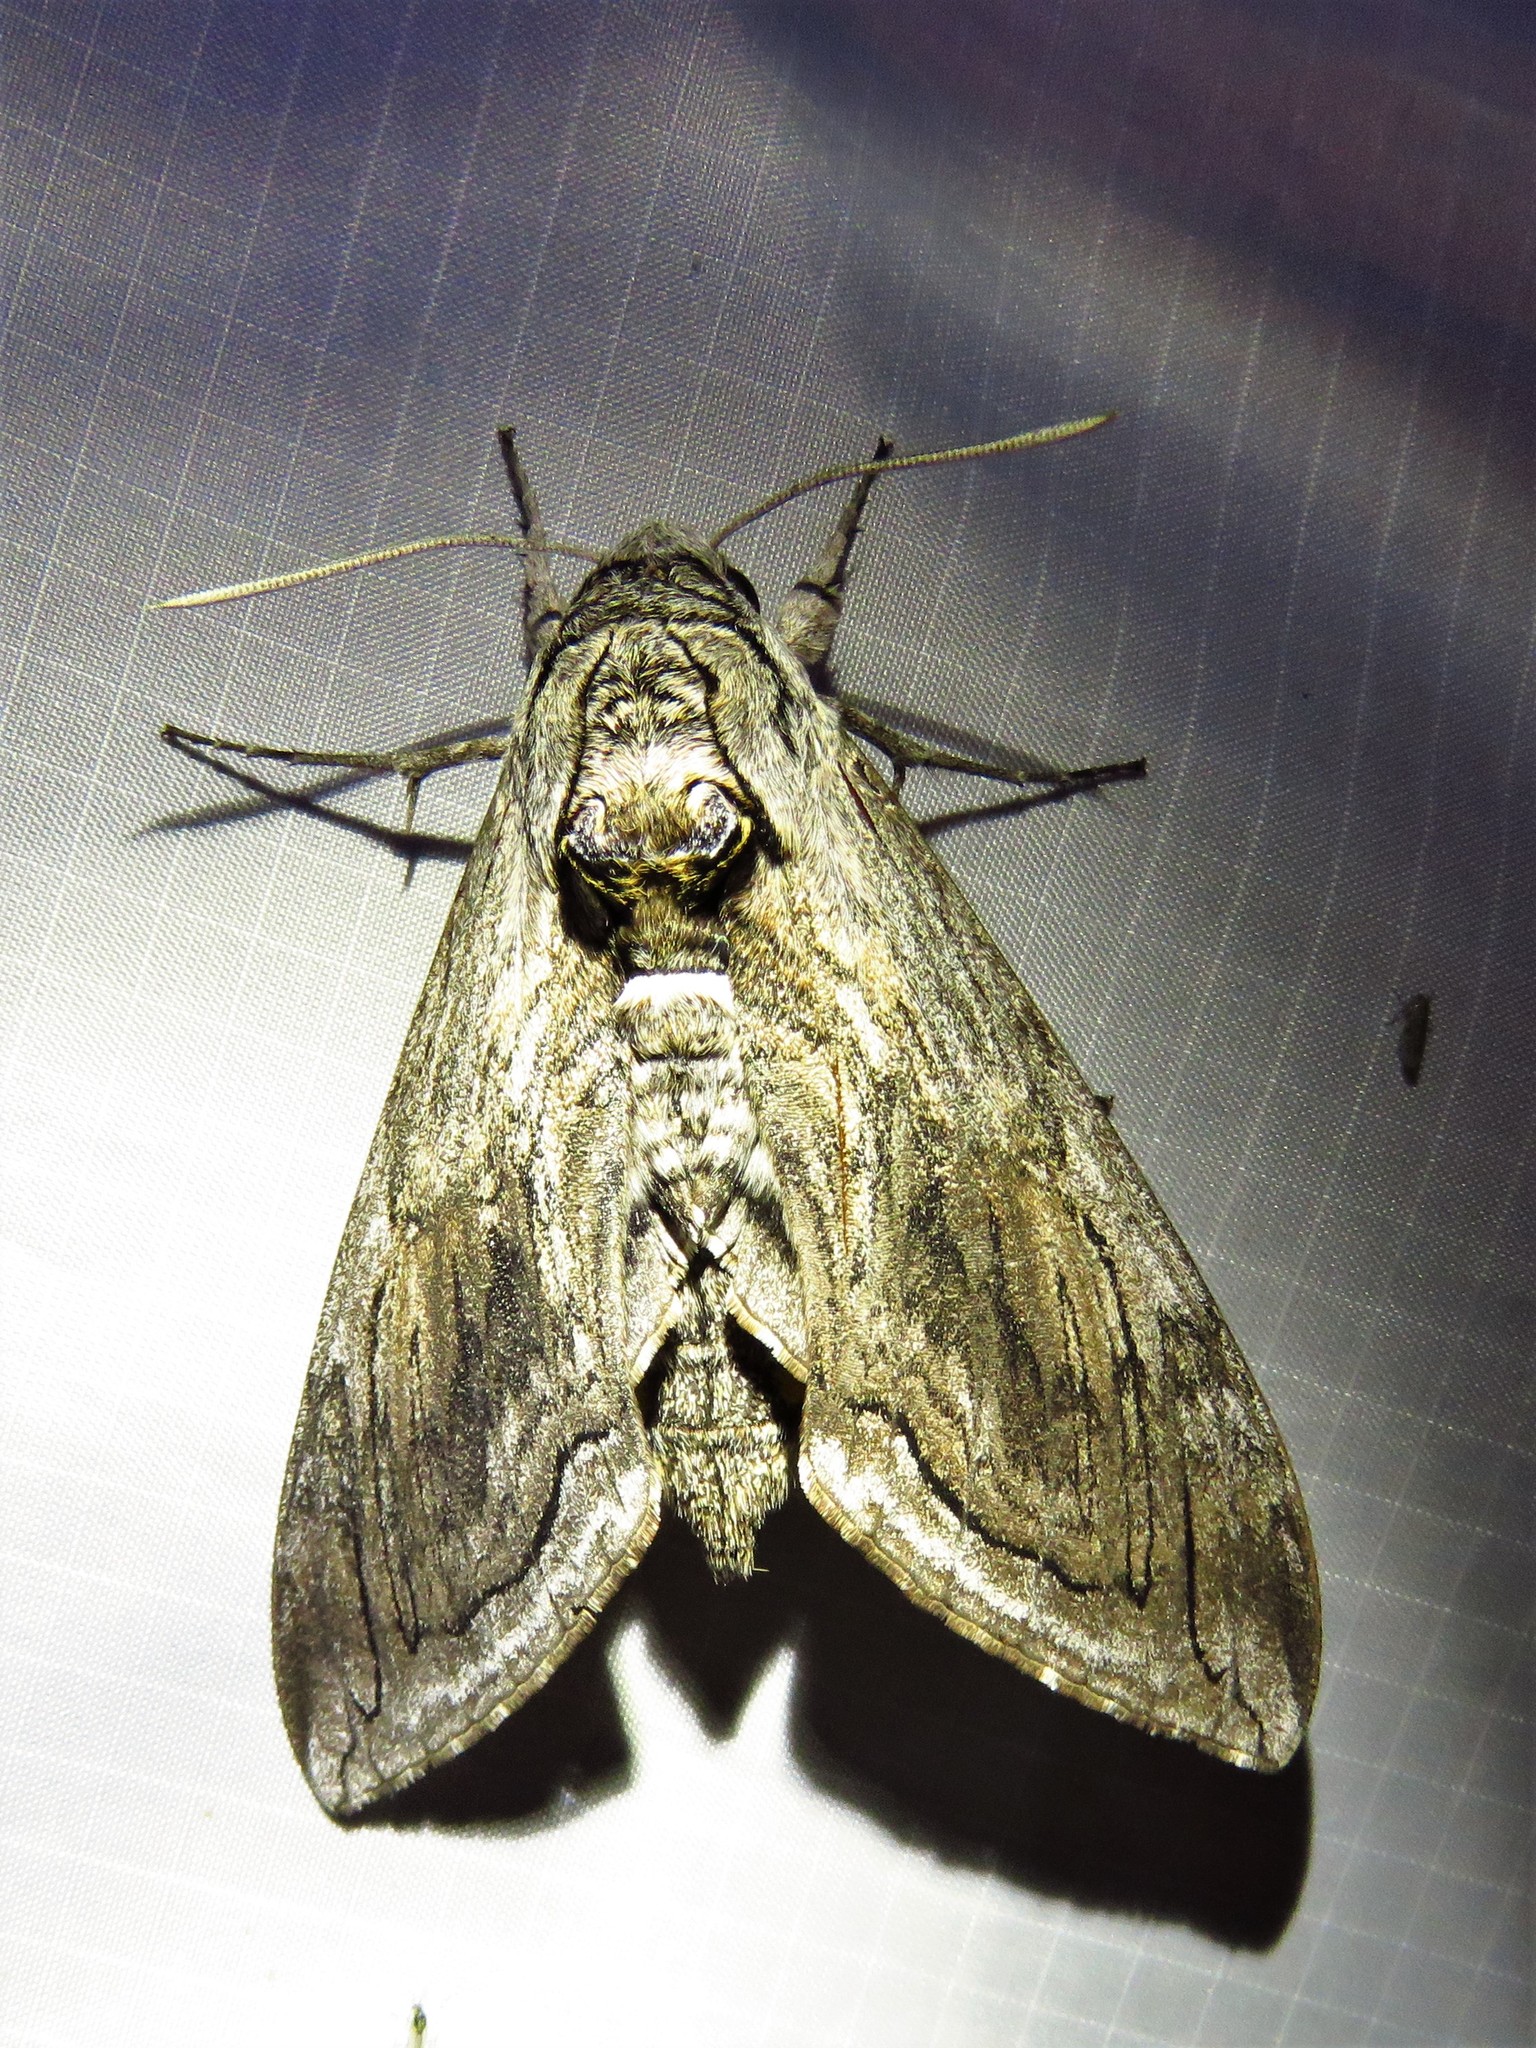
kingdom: Animalia
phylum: Arthropoda
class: Insecta
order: Lepidoptera
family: Sphingidae
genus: Manduca
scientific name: Manduca quinquemaculatus
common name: Five-spotted hawk-moth
